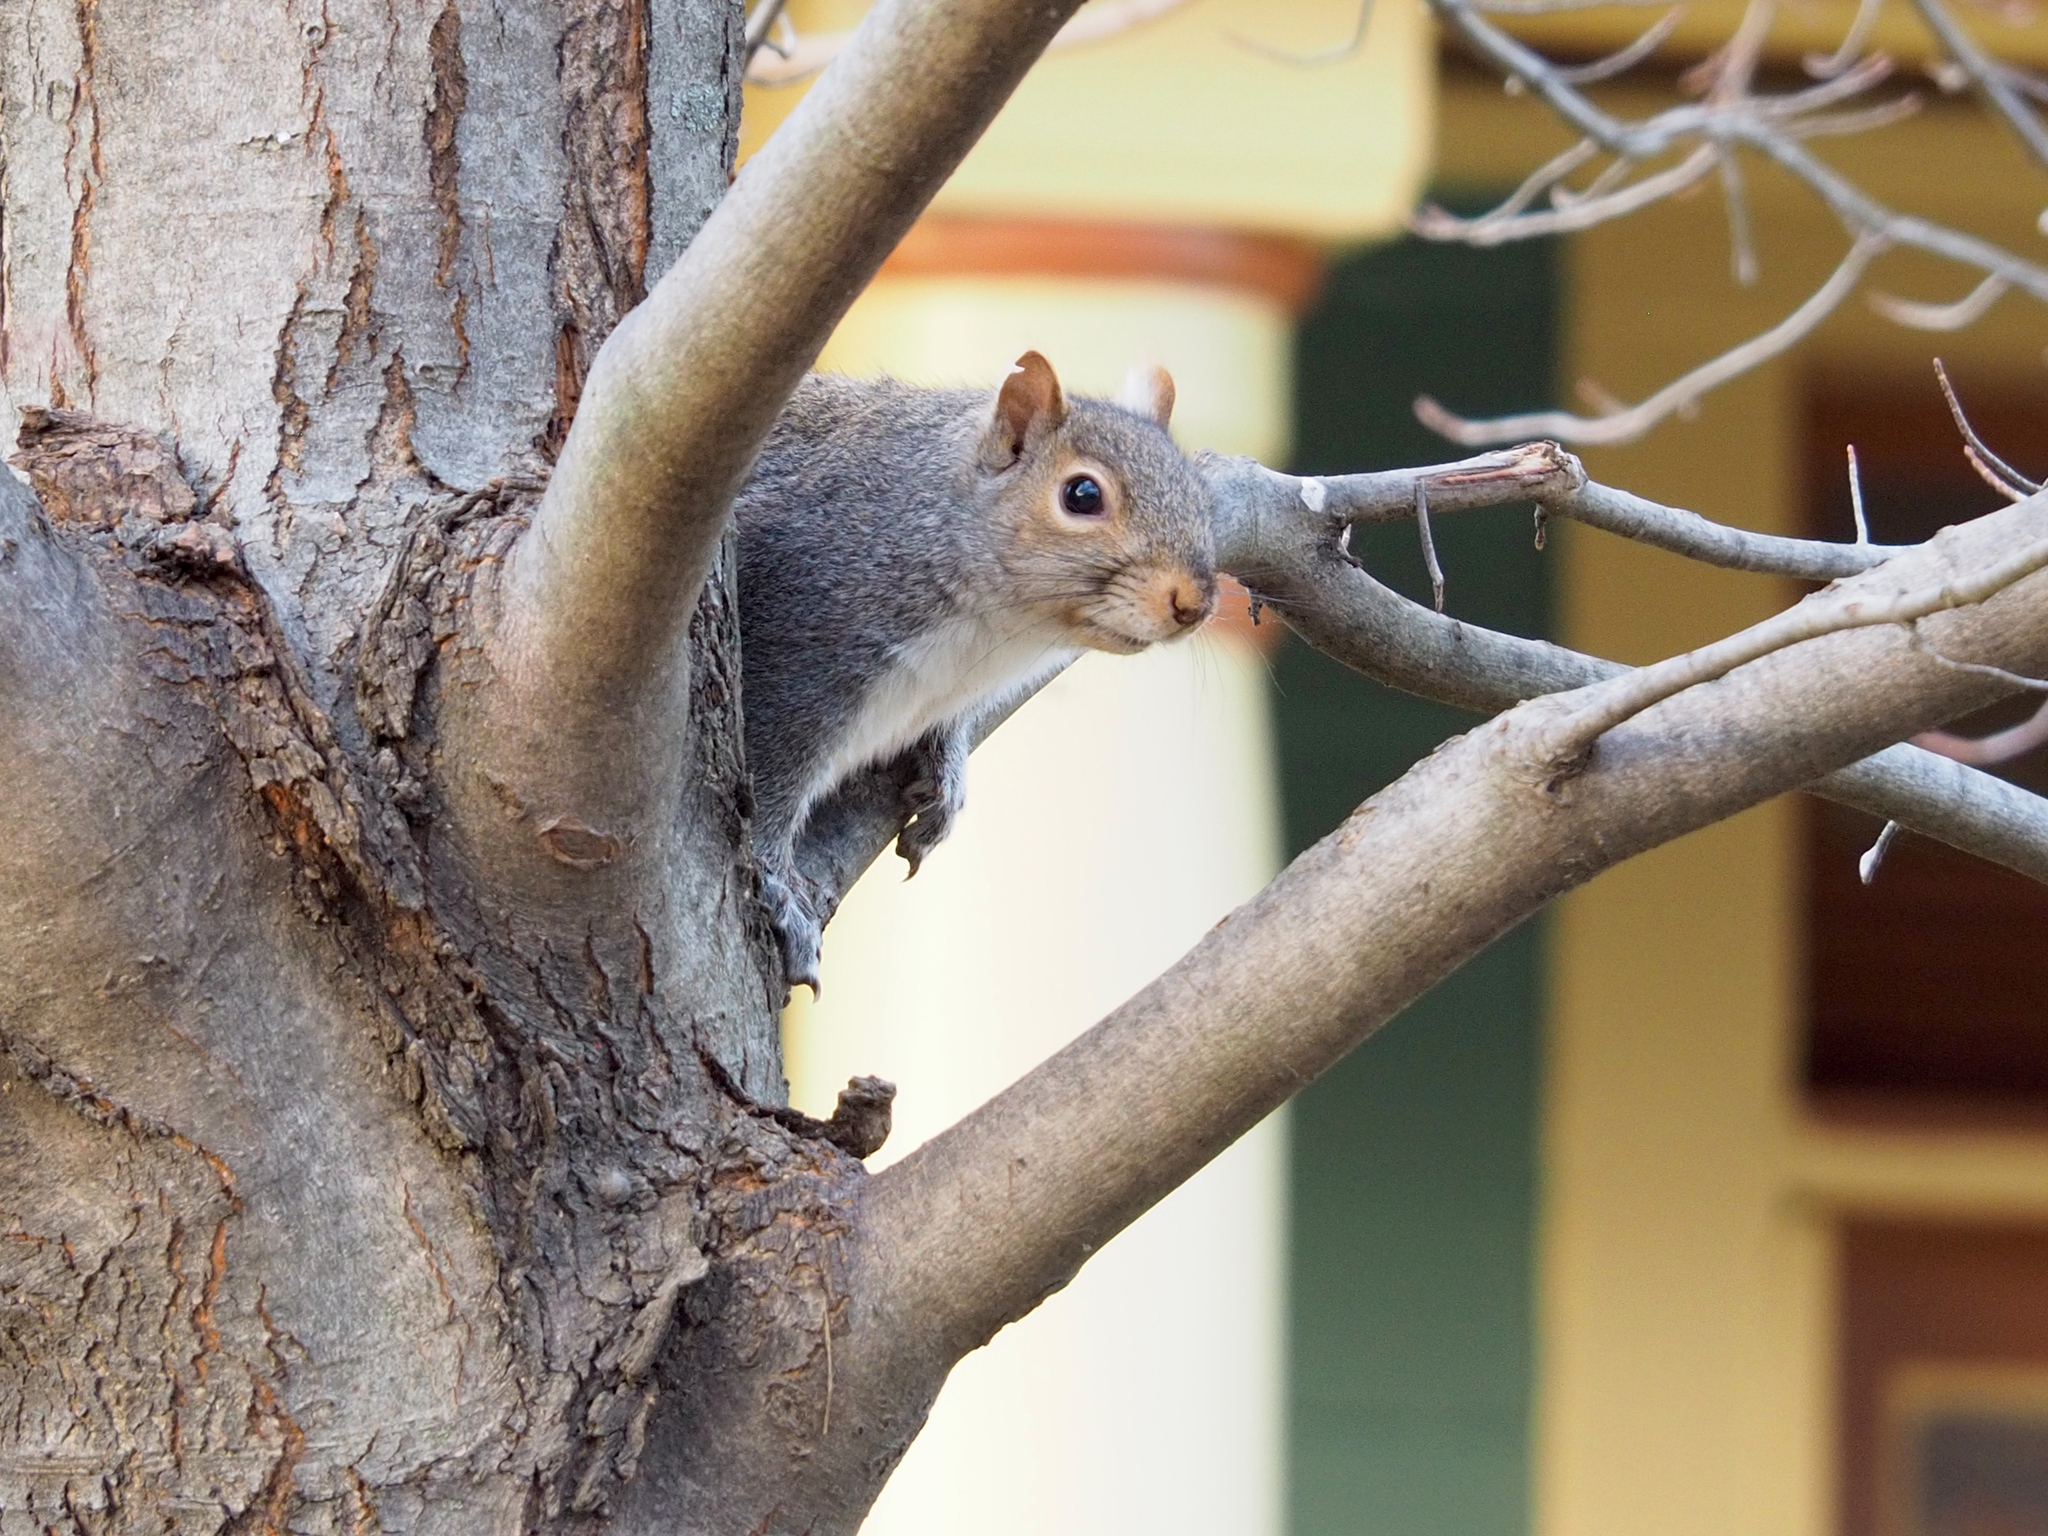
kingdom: Animalia
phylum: Chordata
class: Mammalia
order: Rodentia
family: Sciuridae
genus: Sciurus
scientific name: Sciurus carolinensis
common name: Eastern gray squirrel
